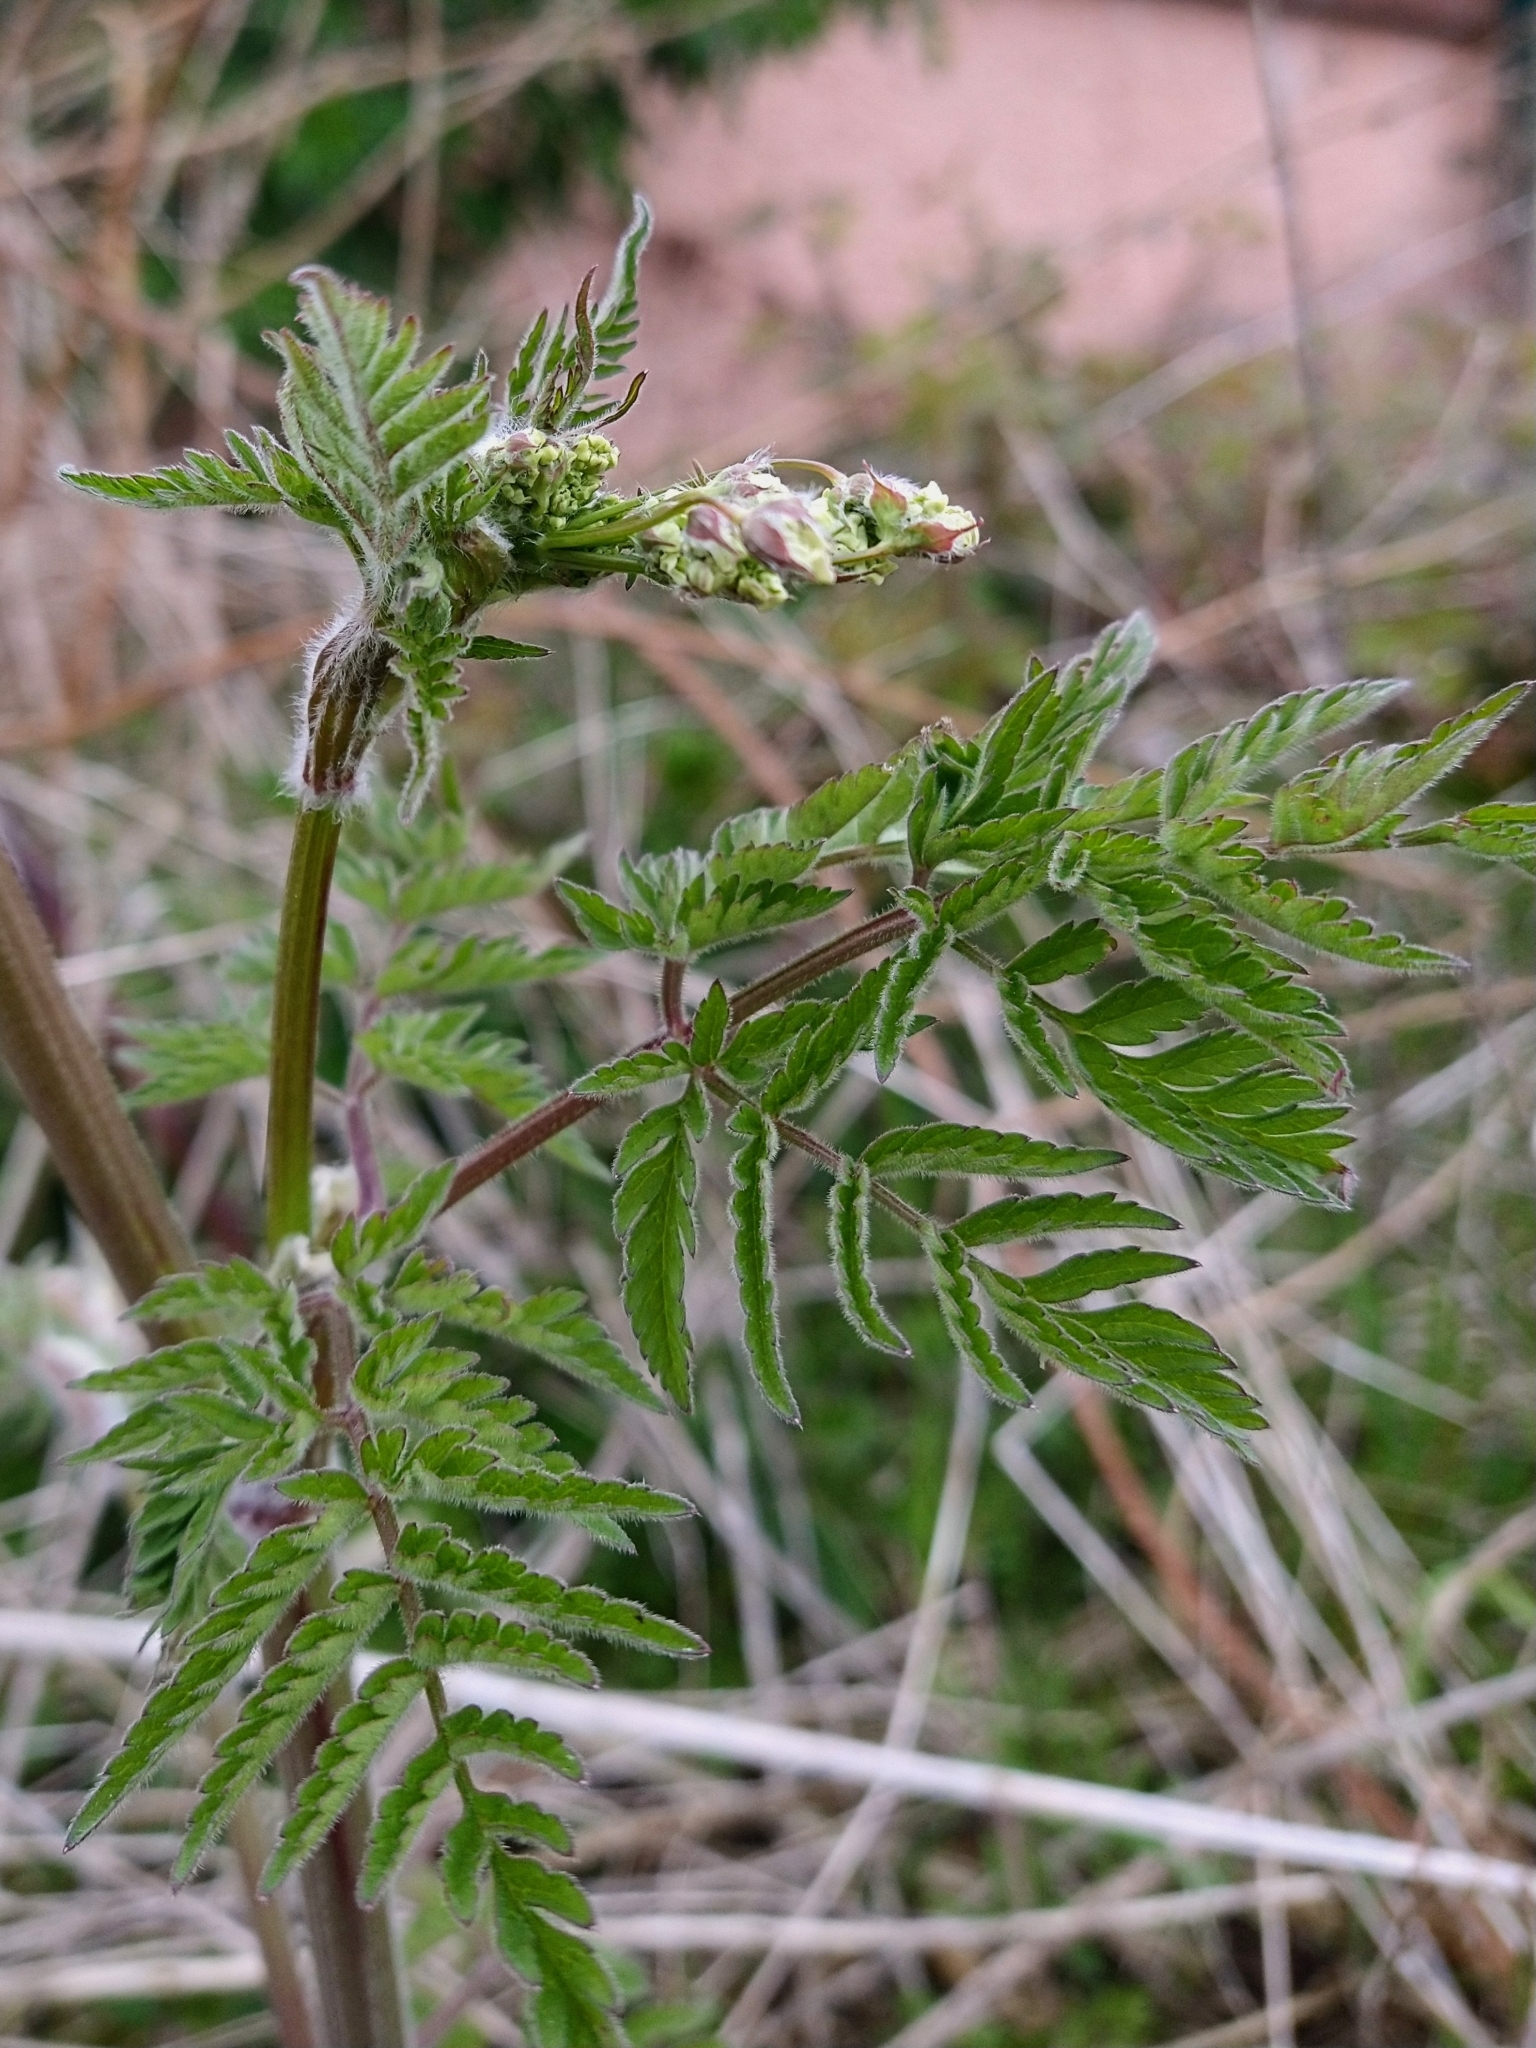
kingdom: Plantae
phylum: Tracheophyta
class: Magnoliopsida
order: Apiales
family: Apiaceae
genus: Anthriscus
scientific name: Anthriscus sylvestris
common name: Cow parsley
